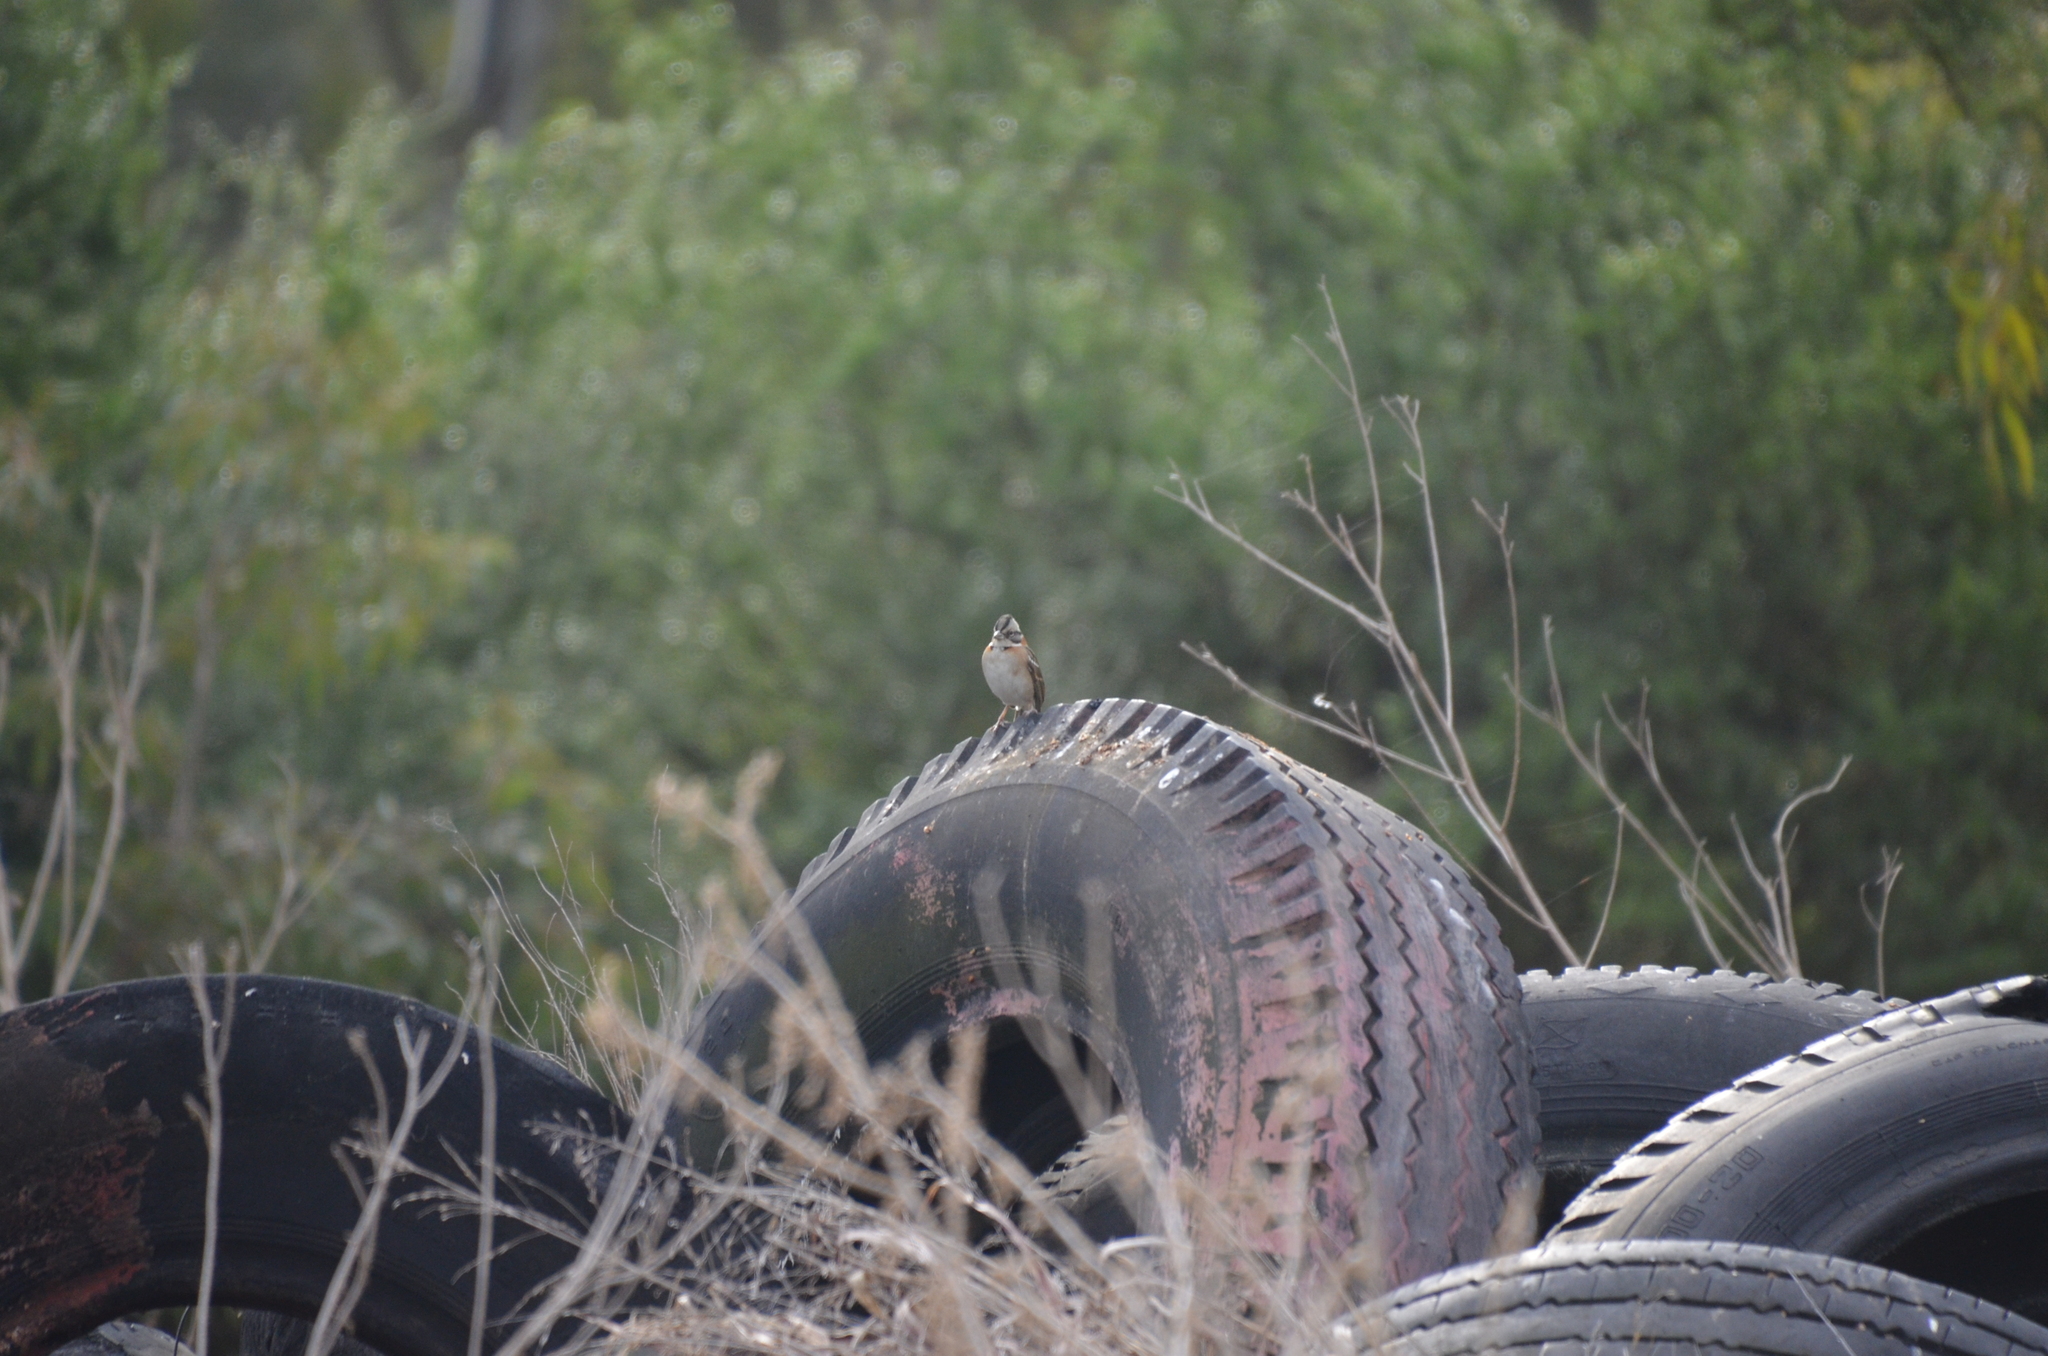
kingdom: Animalia
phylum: Chordata
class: Aves
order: Passeriformes
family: Passerellidae
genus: Zonotrichia
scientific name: Zonotrichia capensis
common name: Rufous-collared sparrow
